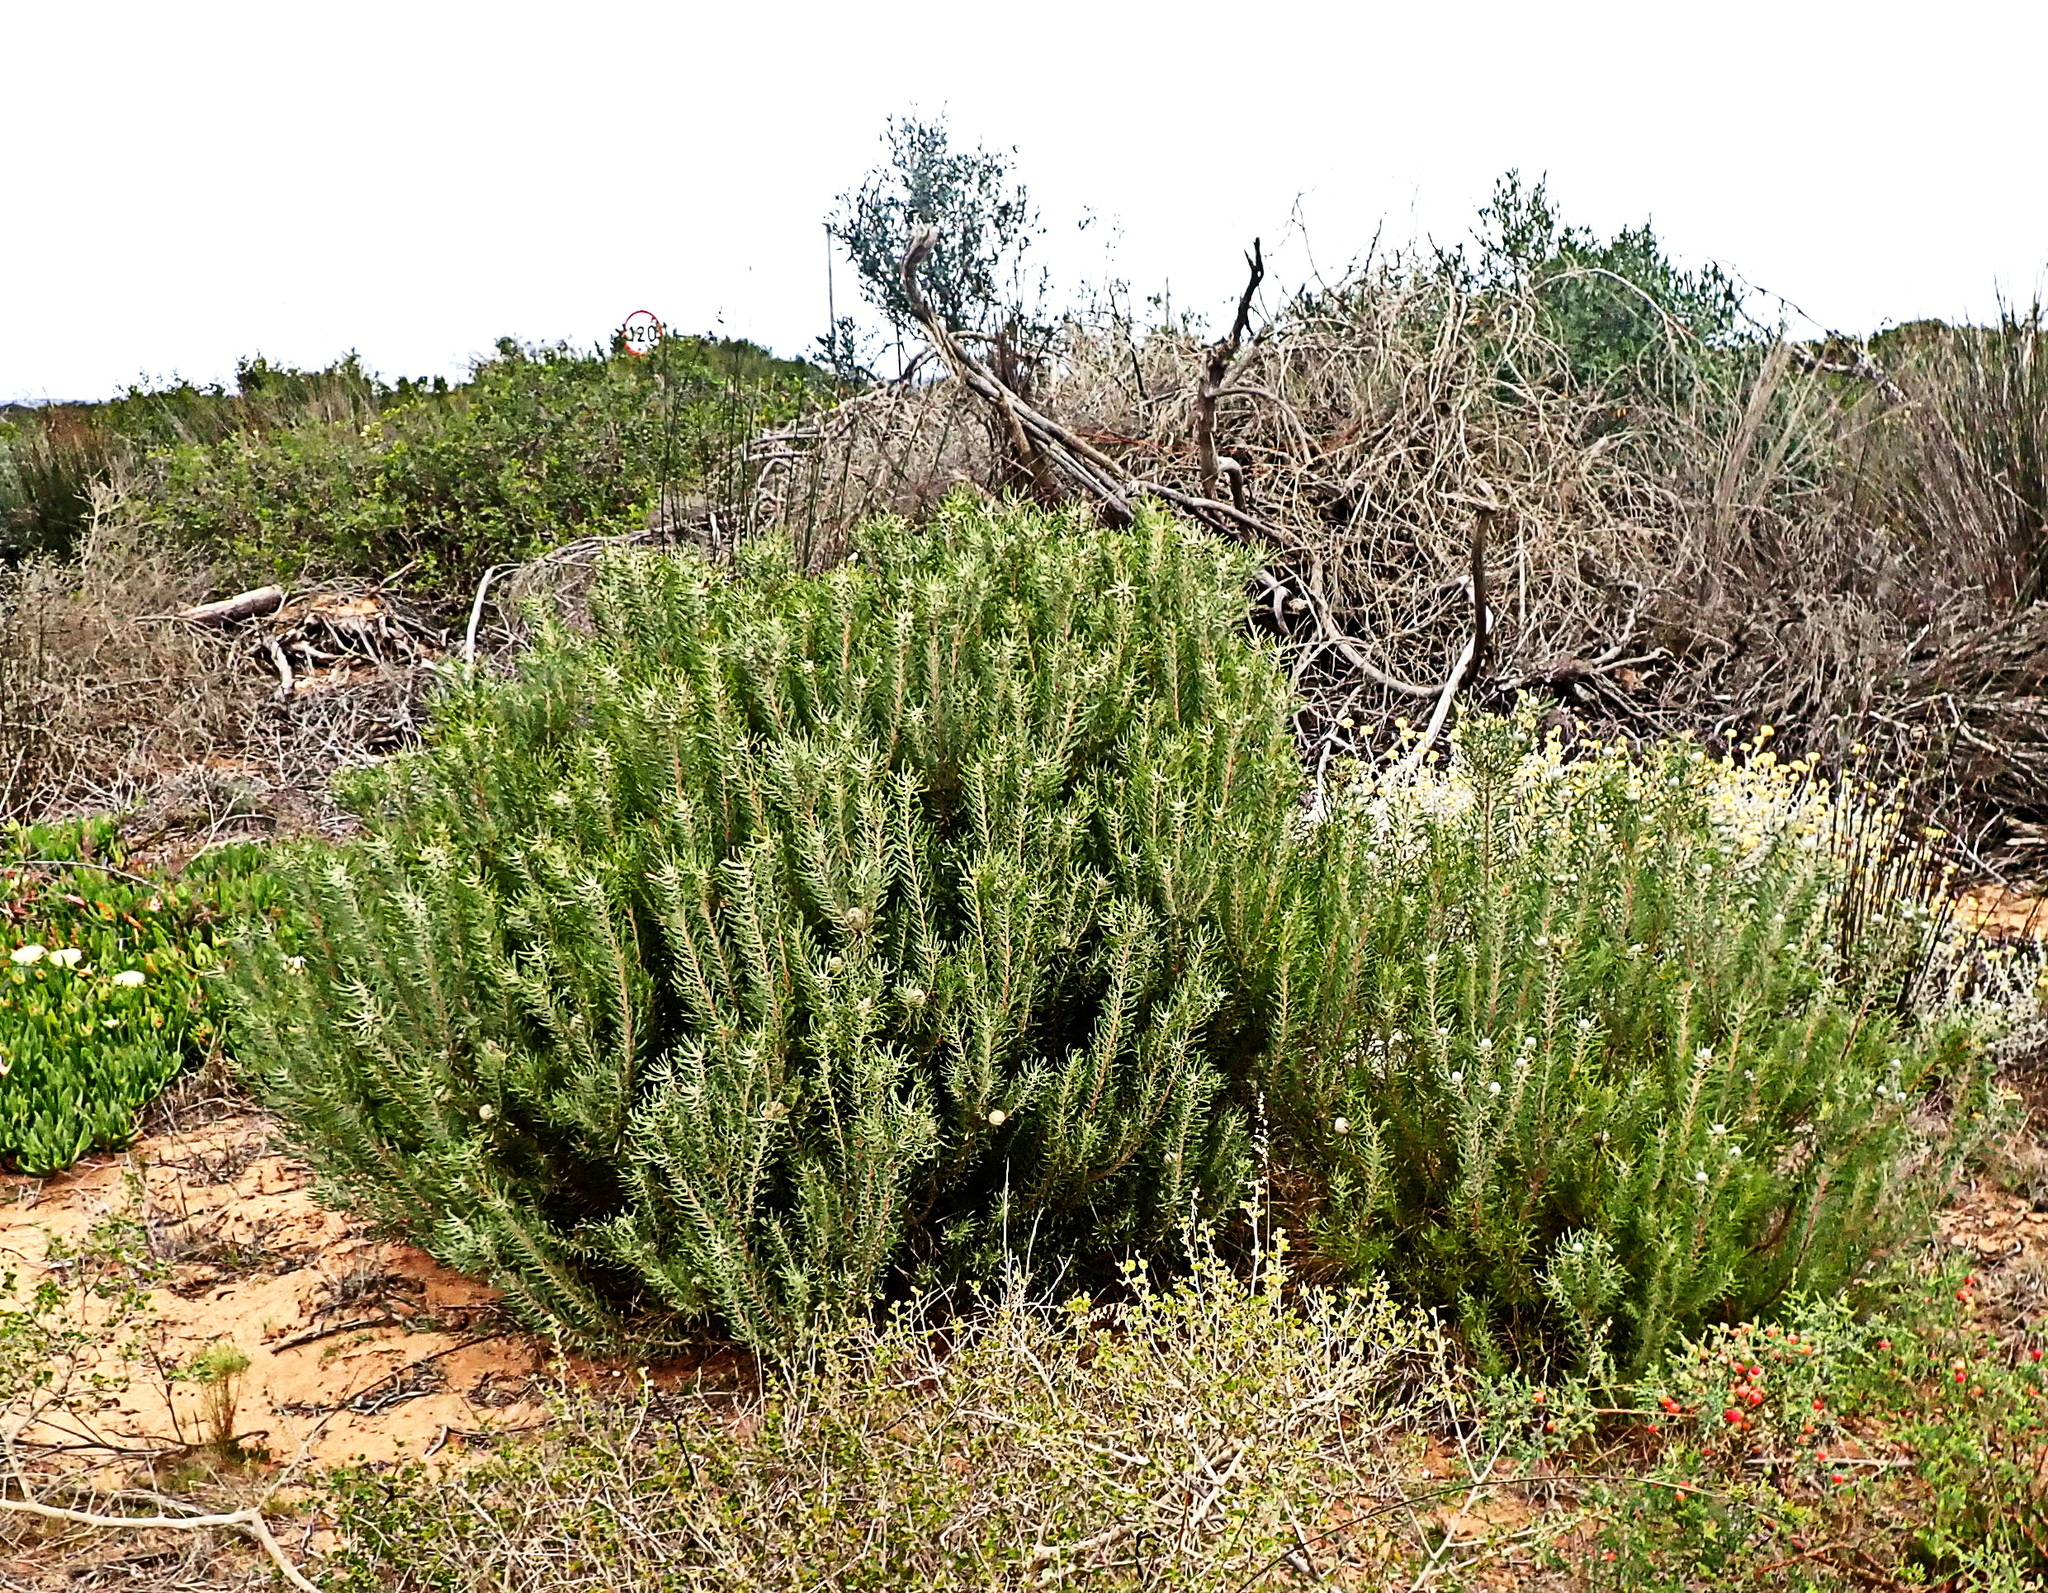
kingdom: Plantae
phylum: Tracheophyta
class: Magnoliopsida
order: Proteales
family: Proteaceae
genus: Leucadendron
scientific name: Leucadendron galpinii
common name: Hairless conebush
